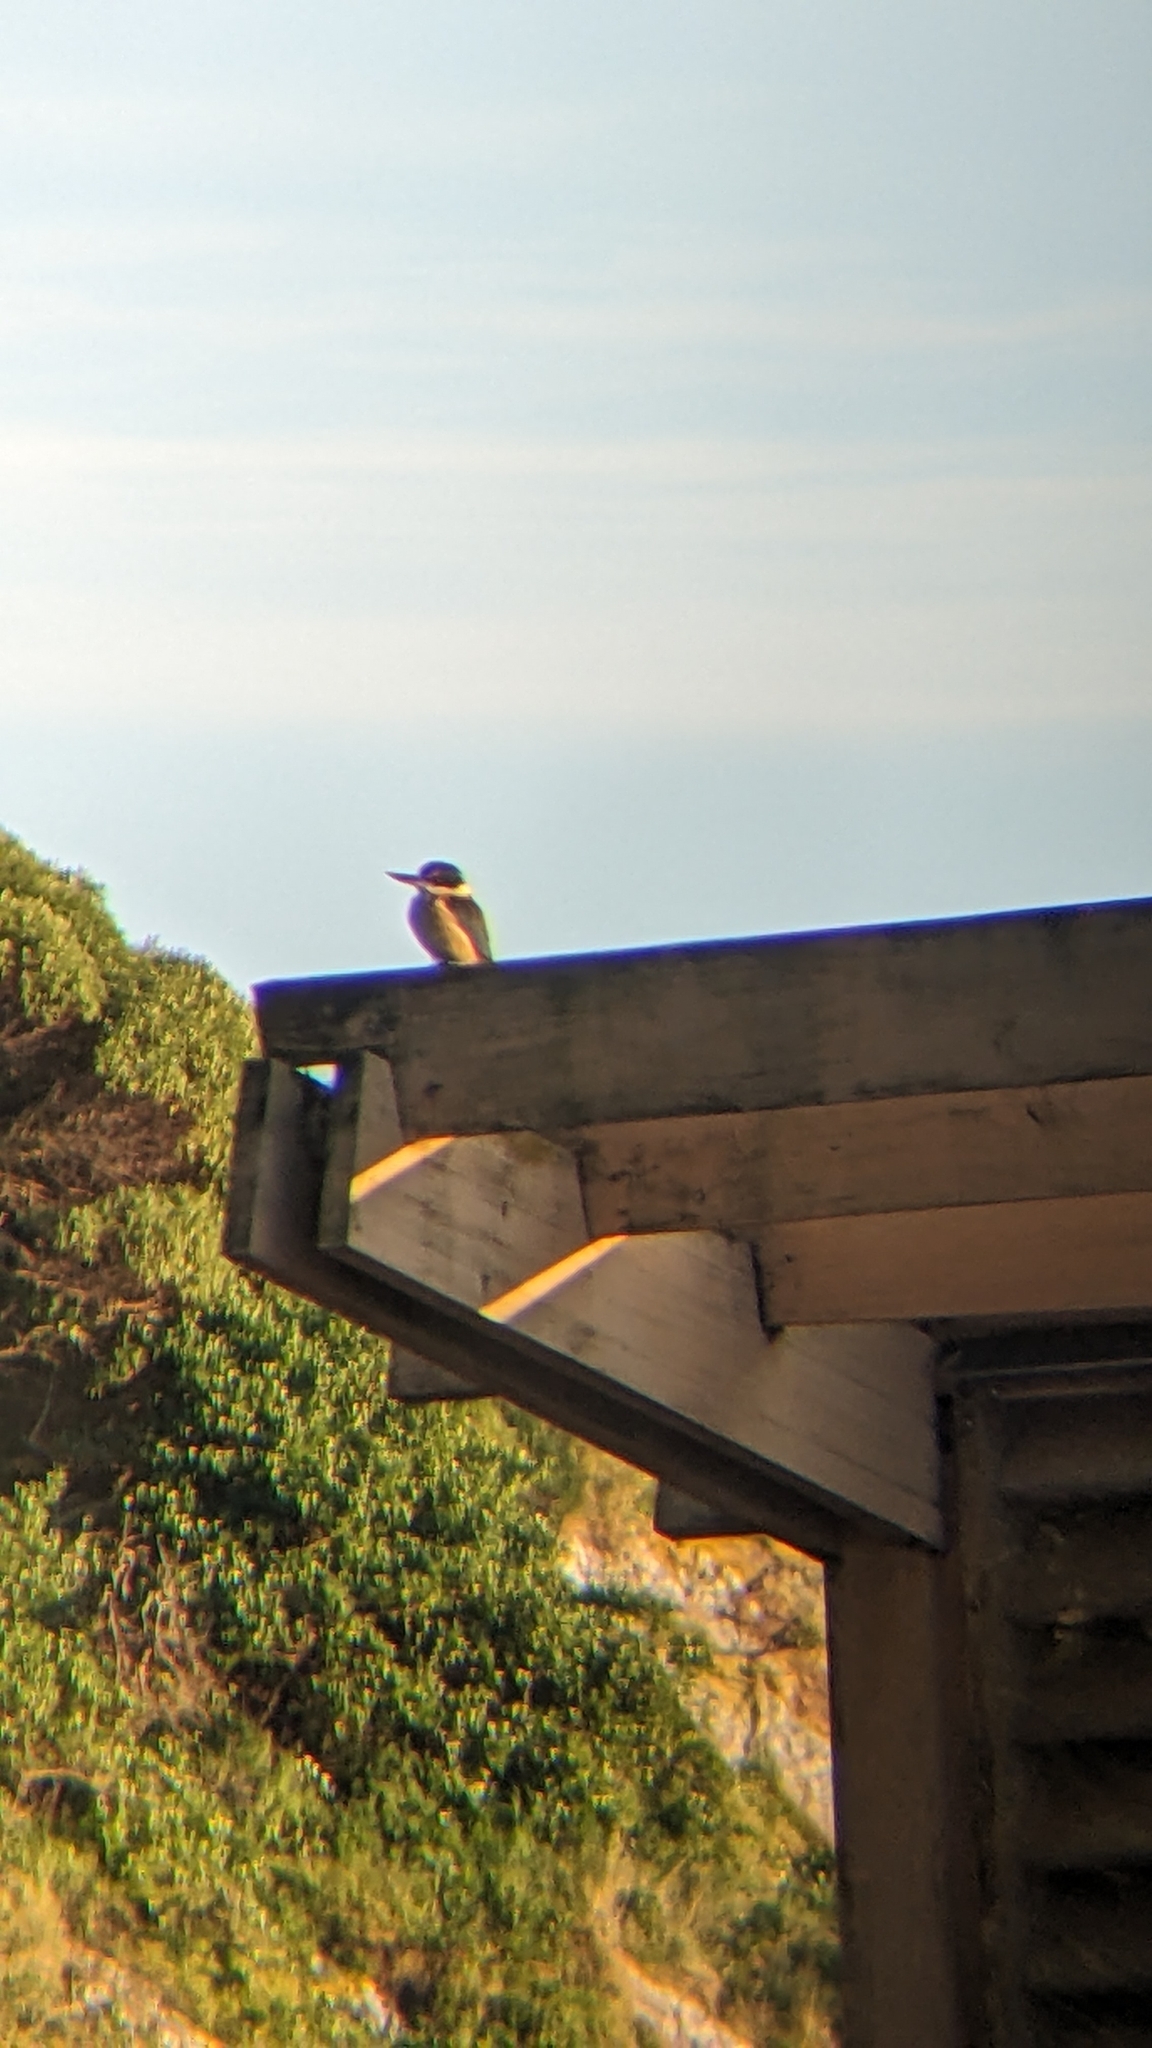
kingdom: Animalia
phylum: Chordata
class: Aves
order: Coraciiformes
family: Alcedinidae
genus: Todiramphus
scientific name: Todiramphus sanctus
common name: Sacred kingfisher
